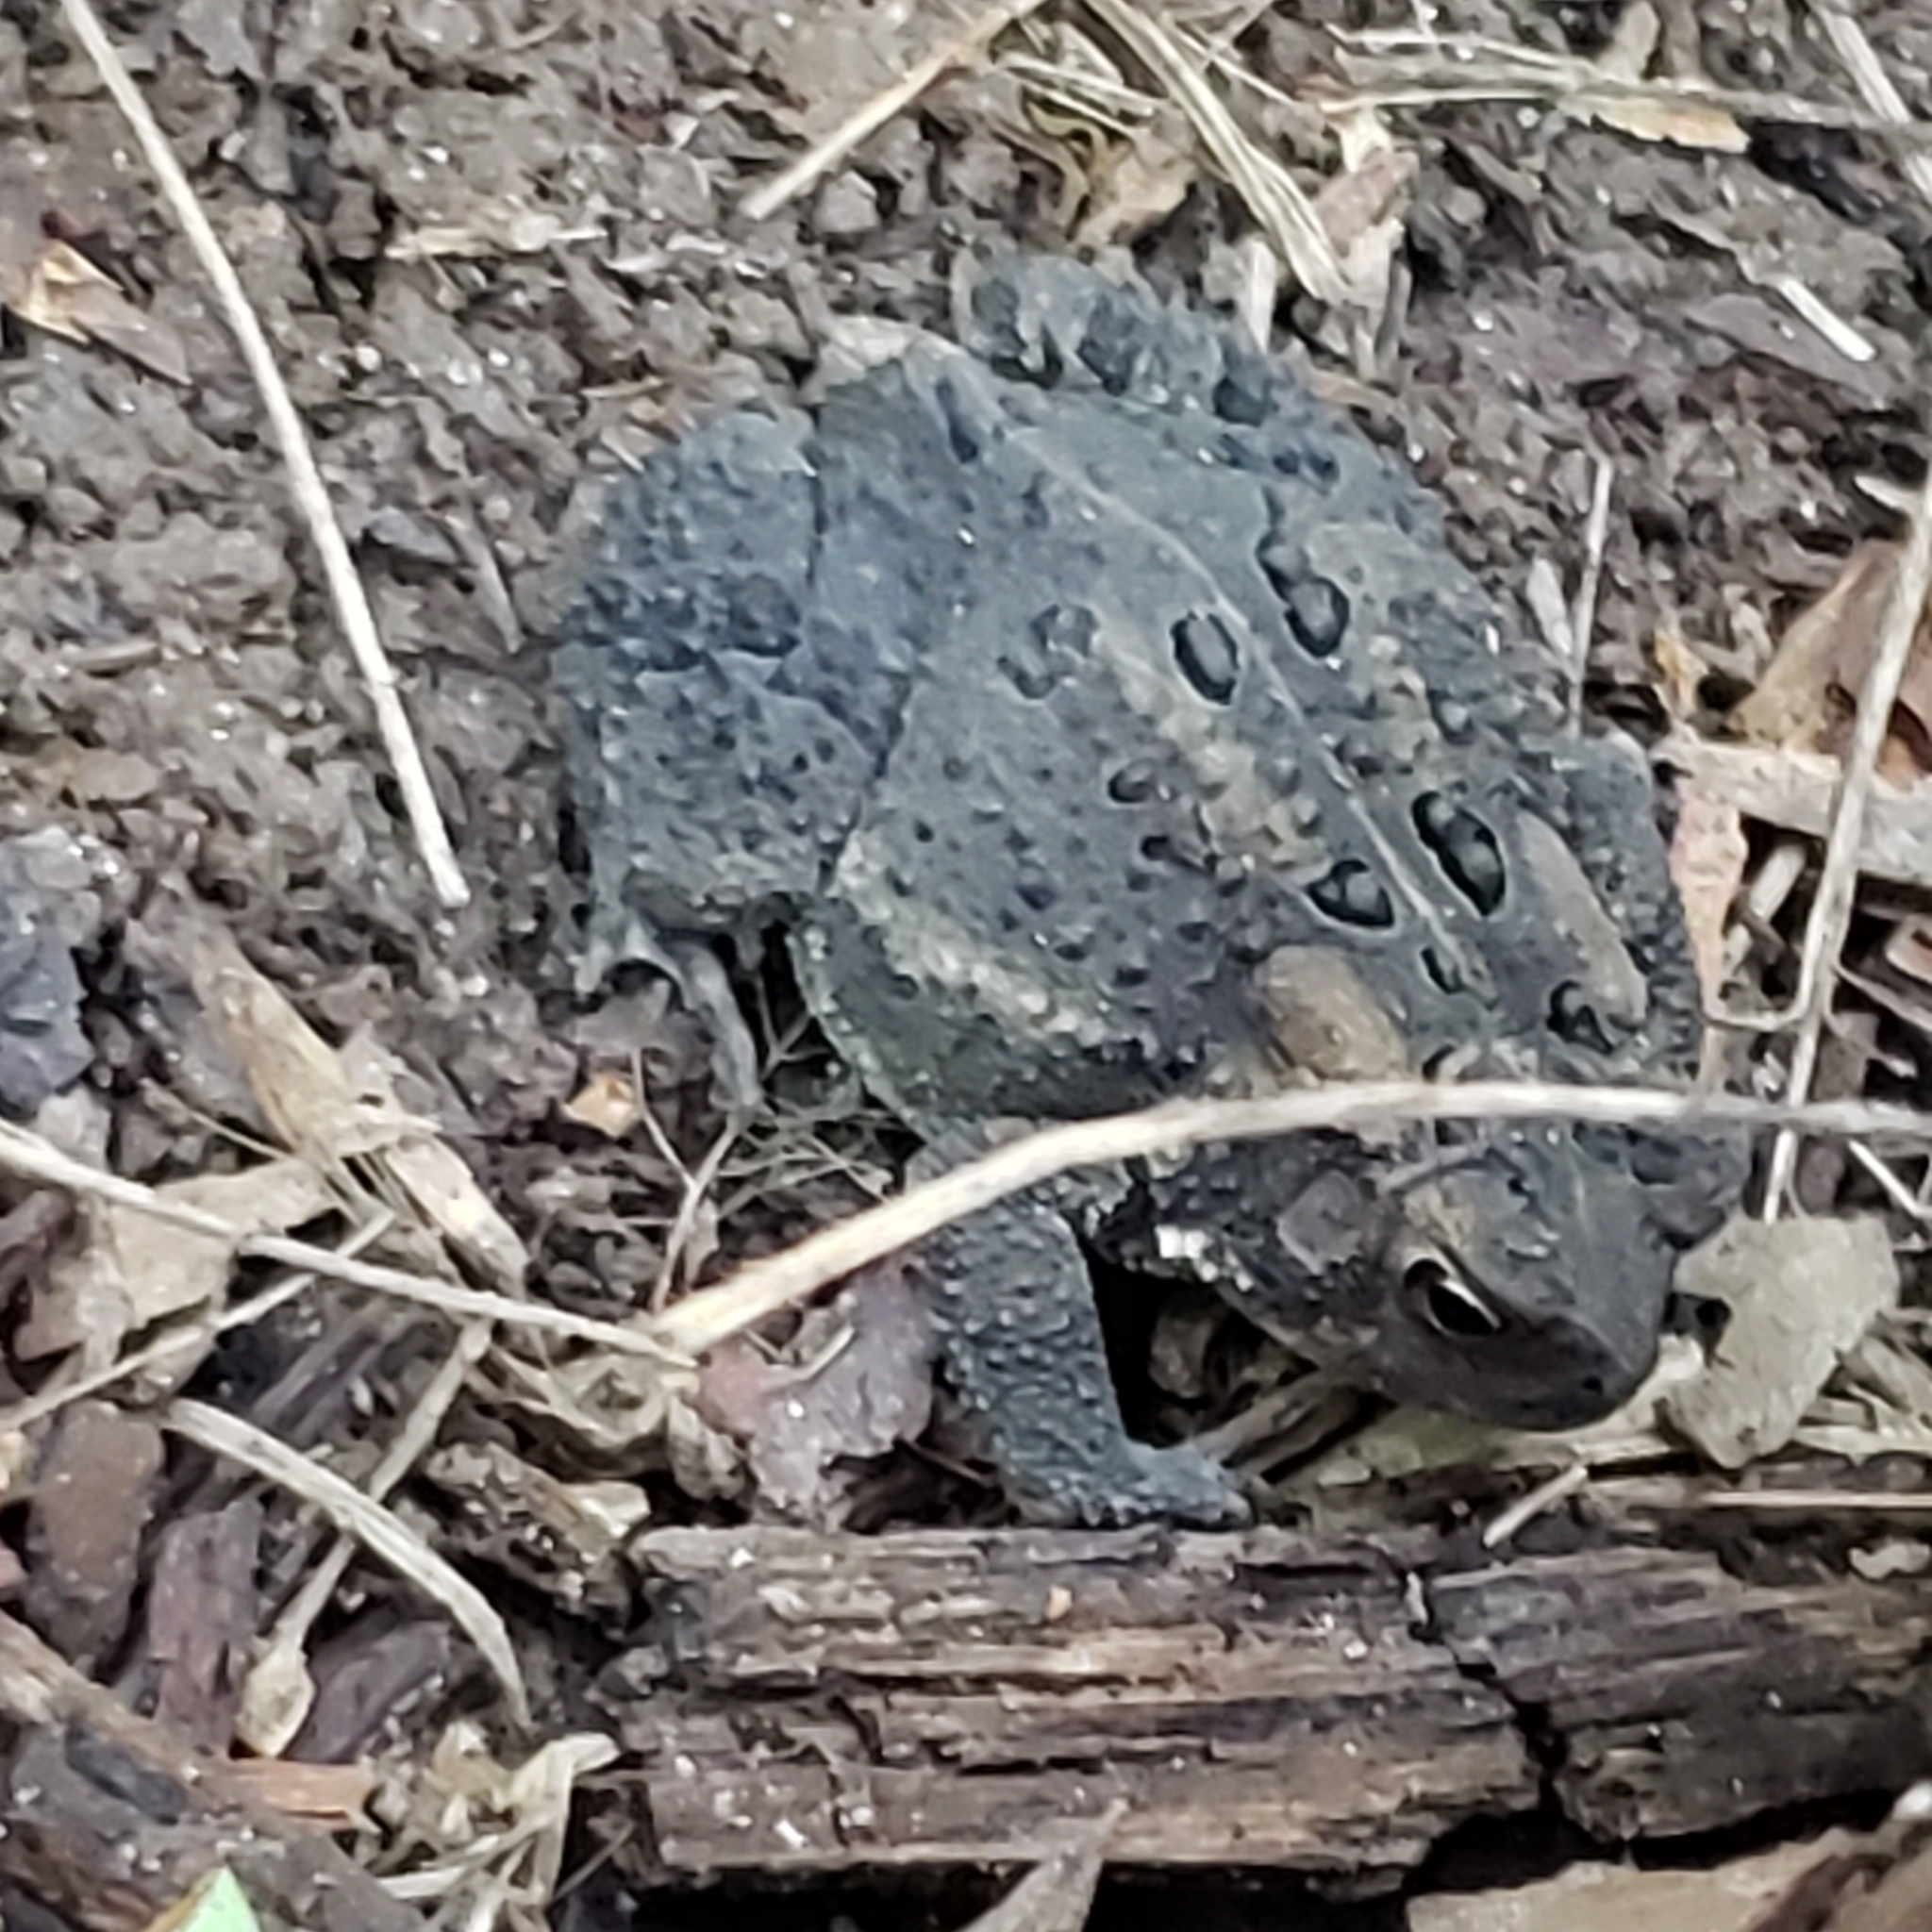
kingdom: Animalia
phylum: Chordata
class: Amphibia
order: Anura
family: Bufonidae
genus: Anaxyrus
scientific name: Anaxyrus americanus
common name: American toad
